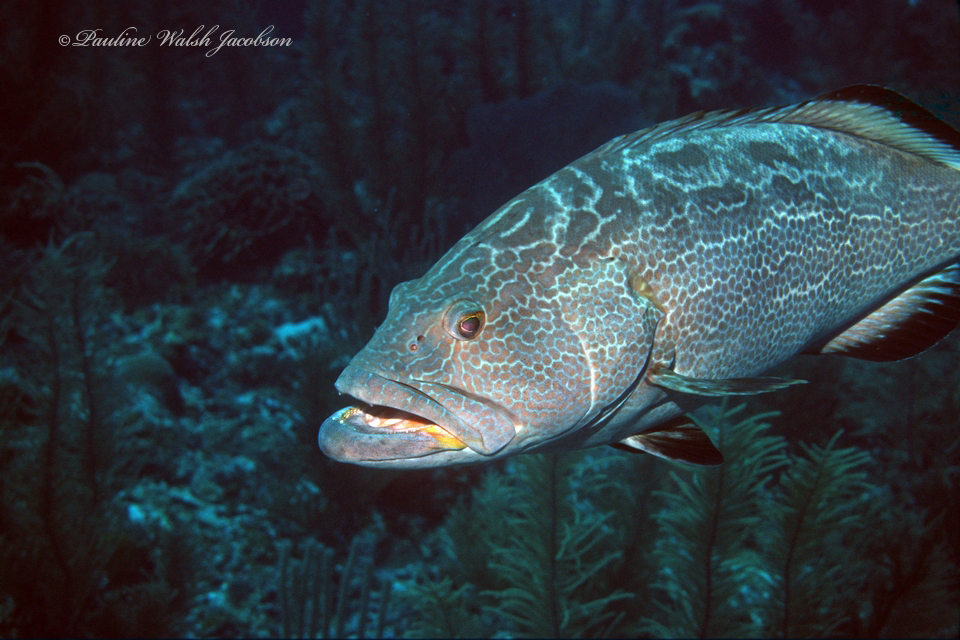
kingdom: Animalia
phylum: Chordata
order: Perciformes
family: Serranidae
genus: Mycteroperca
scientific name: Mycteroperca bonaci
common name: Black grouper
